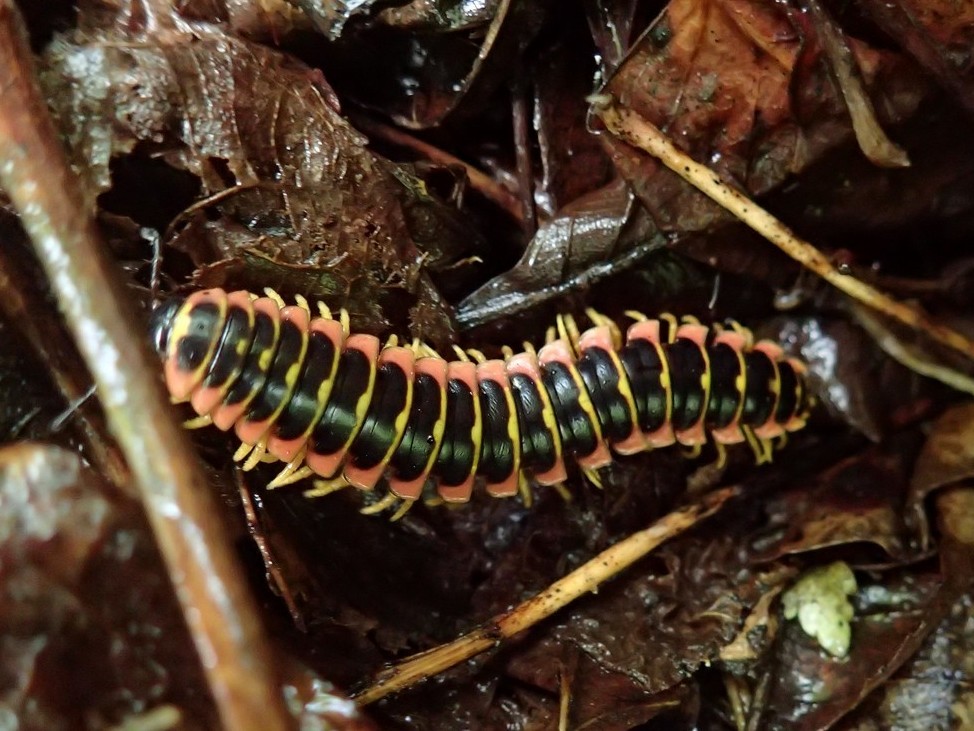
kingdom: Animalia
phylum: Arthropoda
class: Diplopoda
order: Polydesmida
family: Xystodesmidae
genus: Apheloria
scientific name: Apheloria virginiensis
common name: Black-and-gold flat millipede
